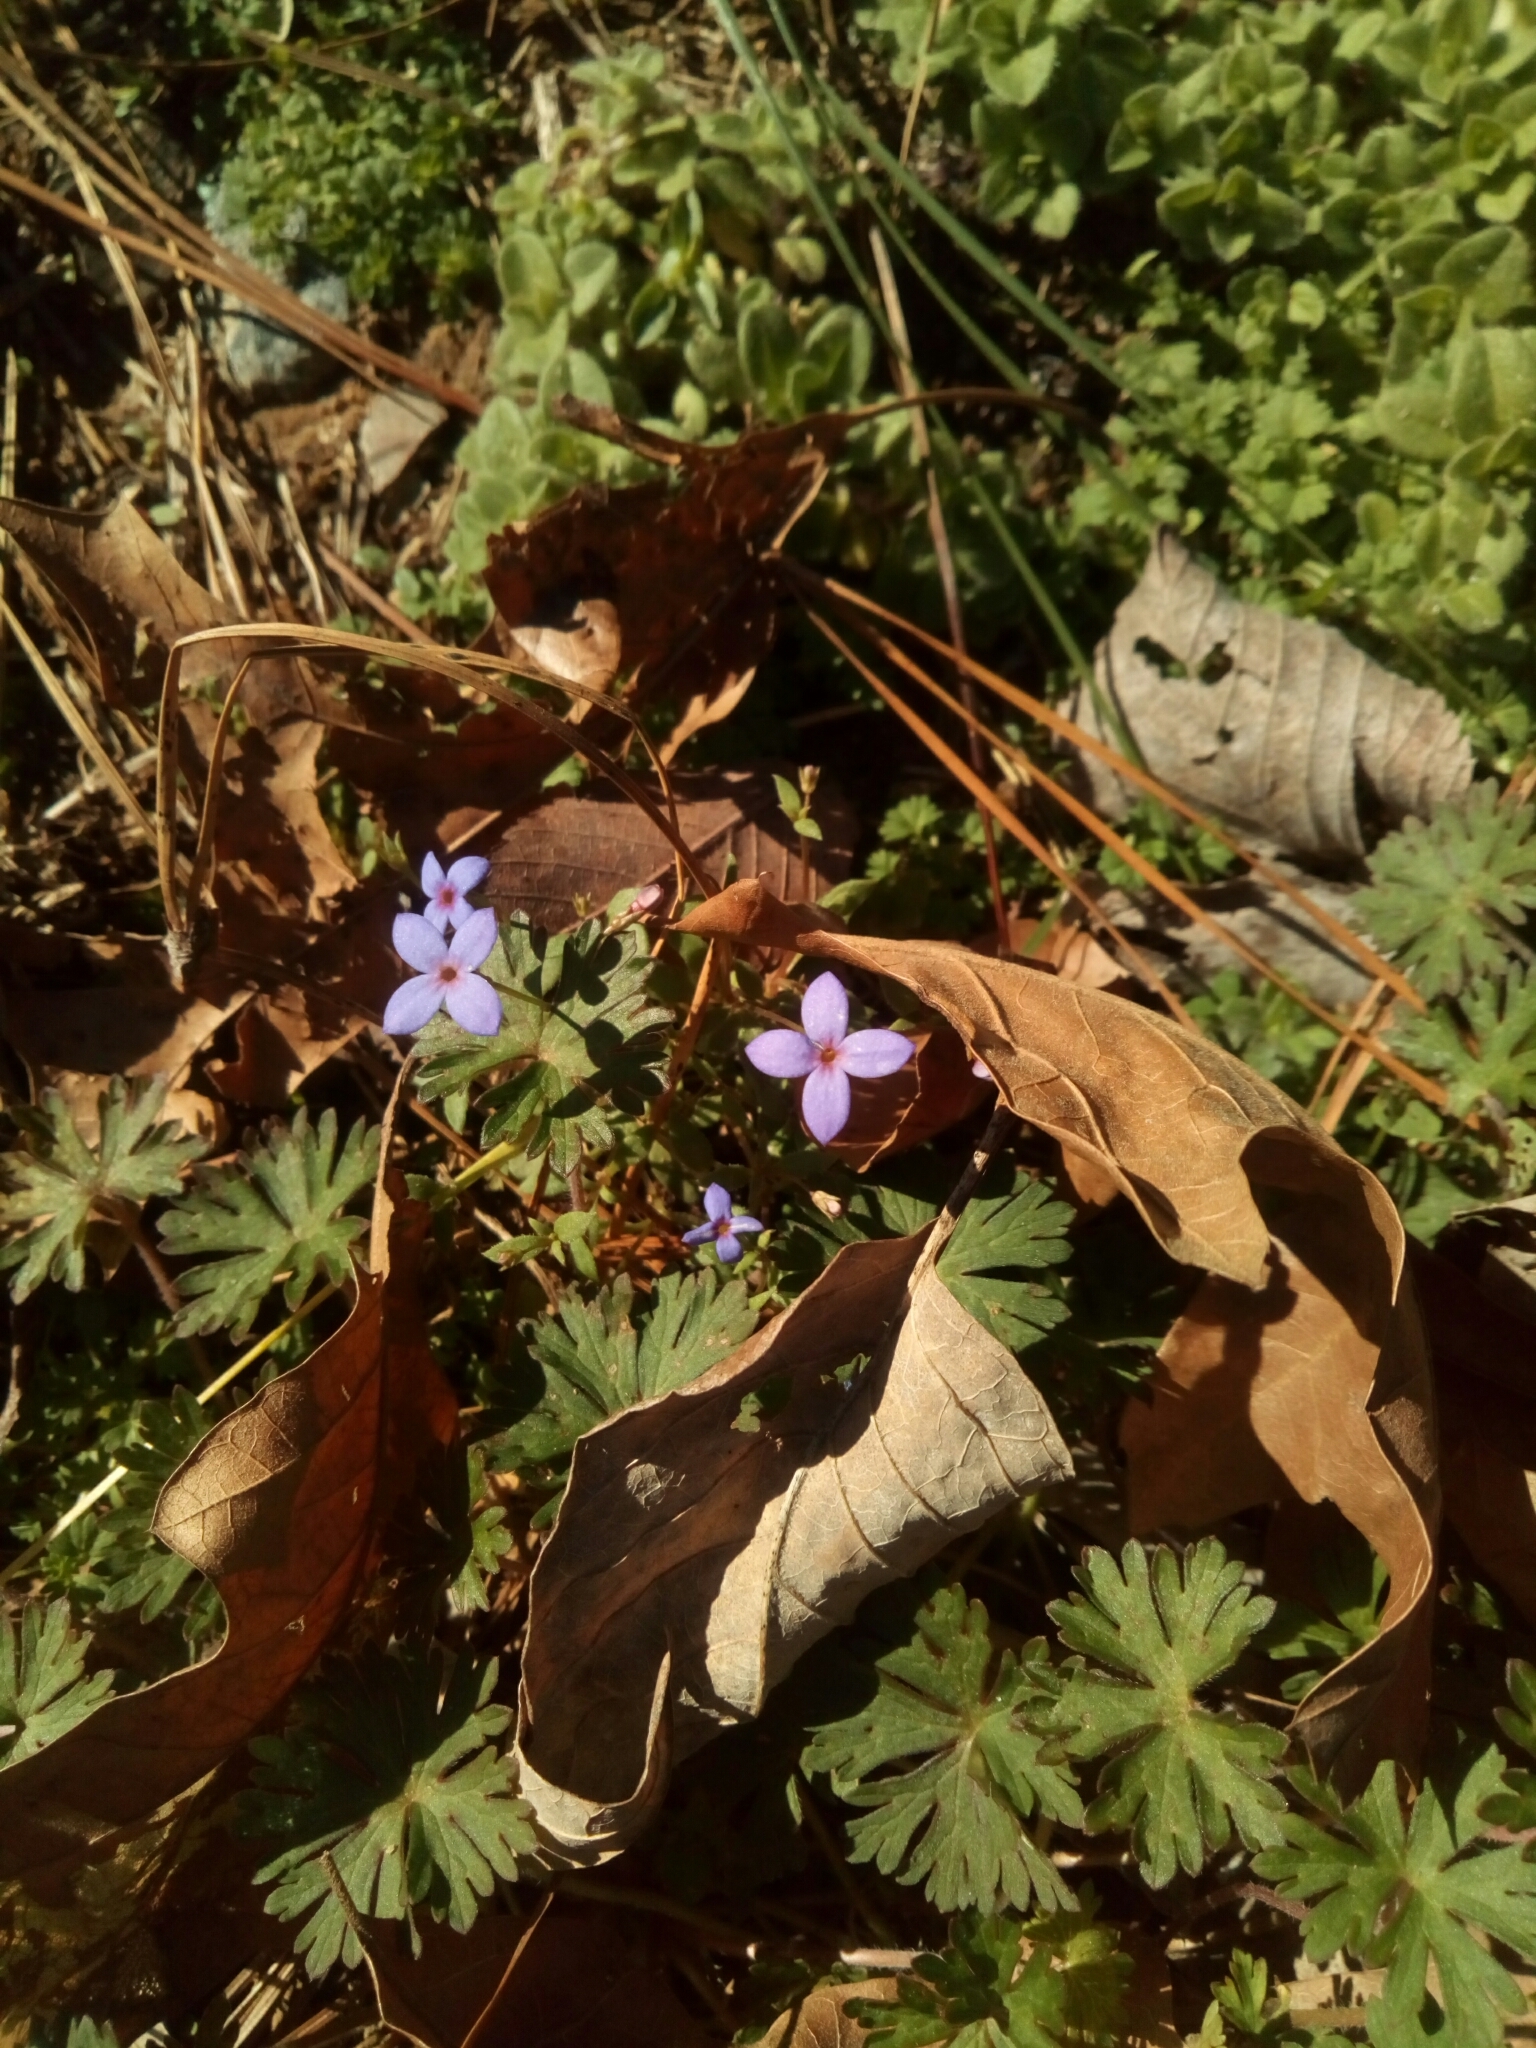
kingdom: Plantae
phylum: Tracheophyta
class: Magnoliopsida
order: Gentianales
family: Rubiaceae
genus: Houstonia
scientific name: Houstonia pusilla
